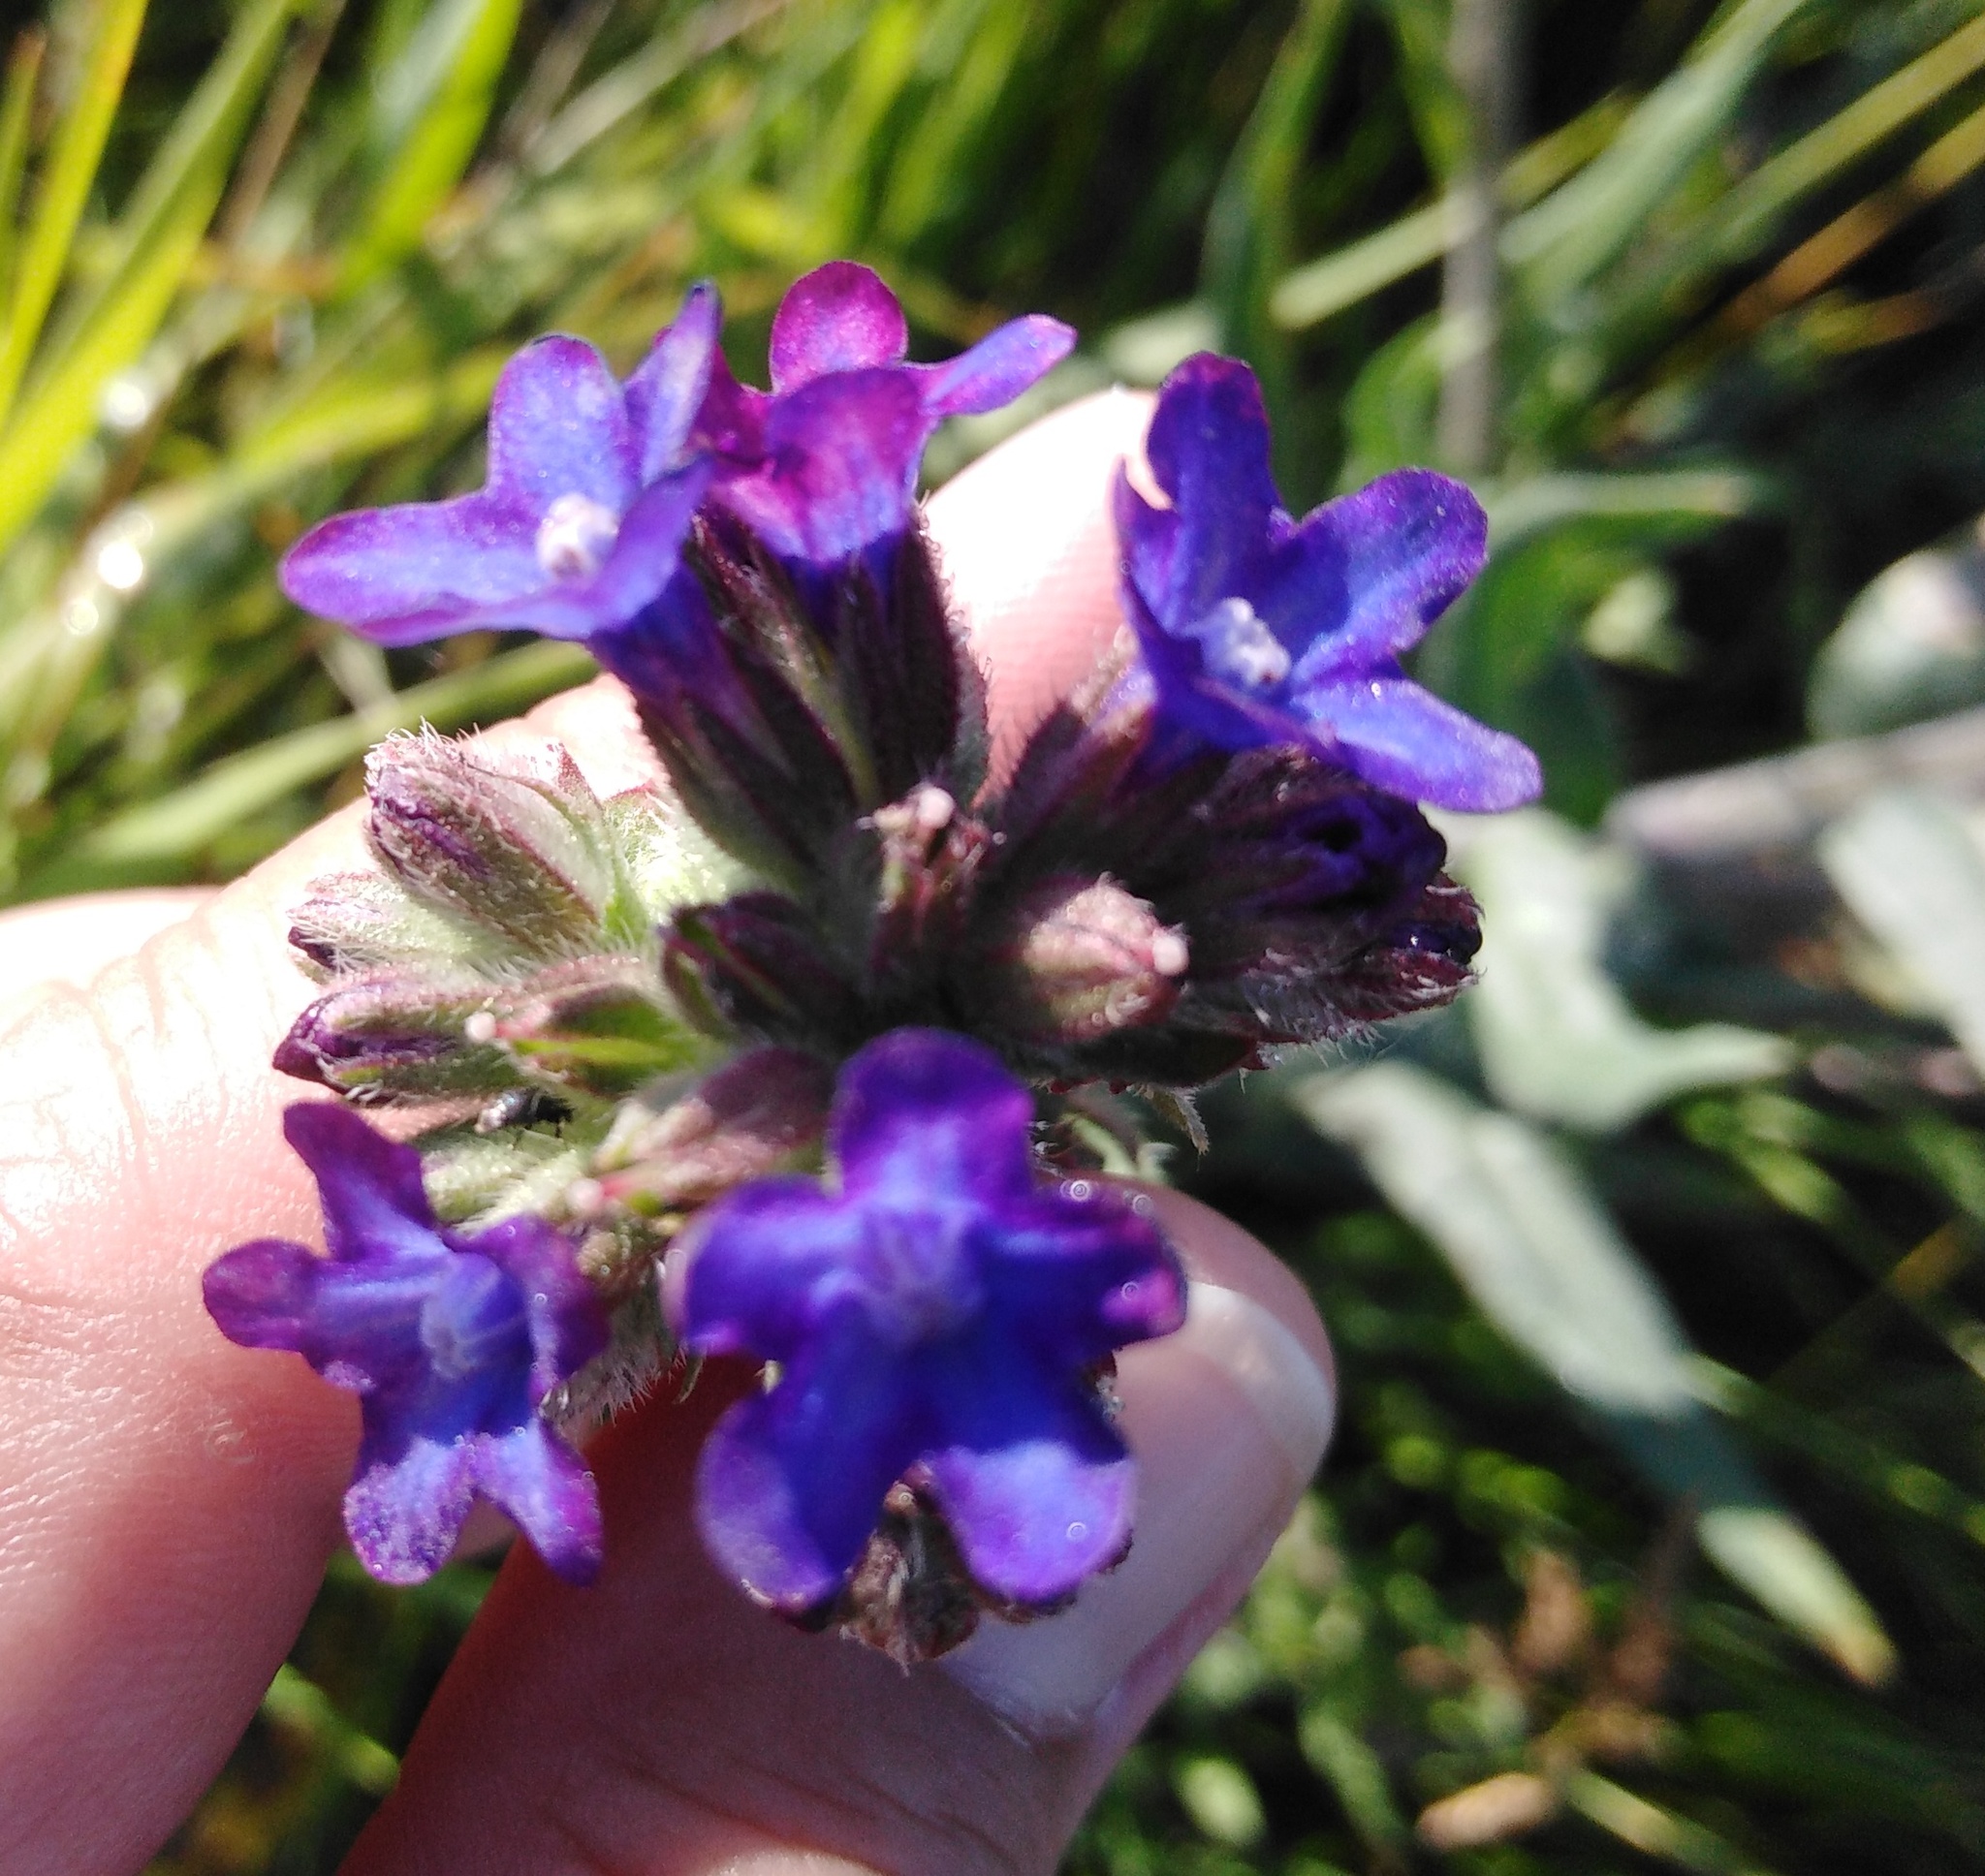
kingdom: Plantae
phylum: Tracheophyta
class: Magnoliopsida
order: Boraginales
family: Boraginaceae
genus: Anchusa
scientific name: Anchusa officinalis
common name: Alkanet
